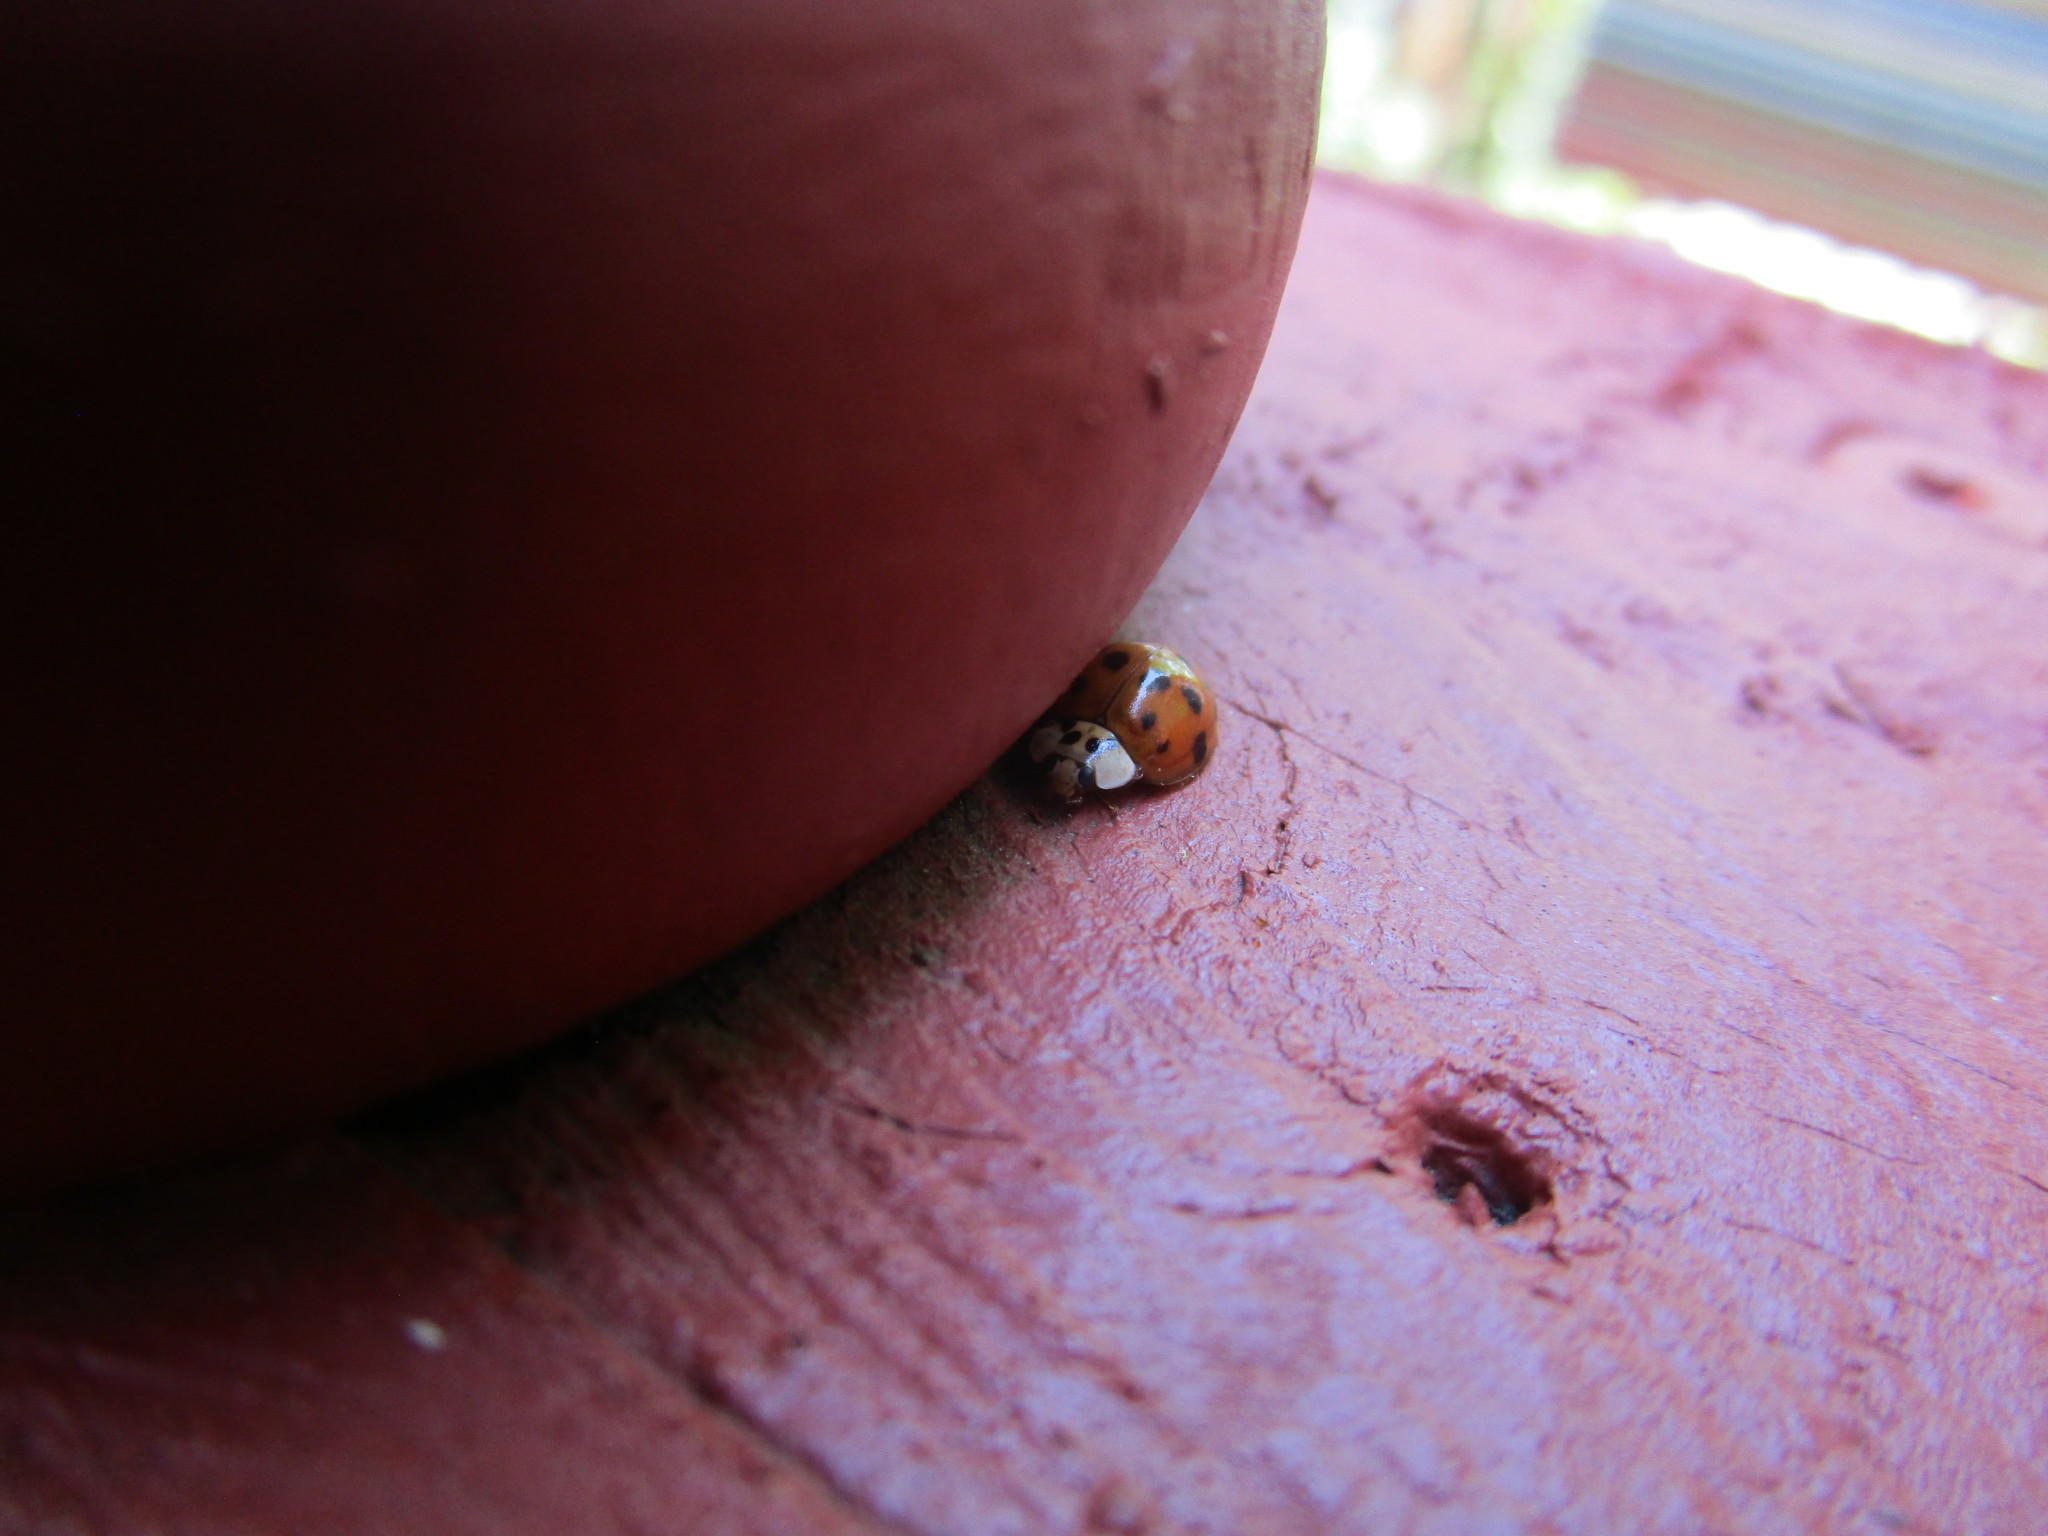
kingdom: Animalia
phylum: Arthropoda
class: Insecta
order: Coleoptera
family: Coccinellidae
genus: Harmonia
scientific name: Harmonia axyridis
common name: Harlequin ladybird
